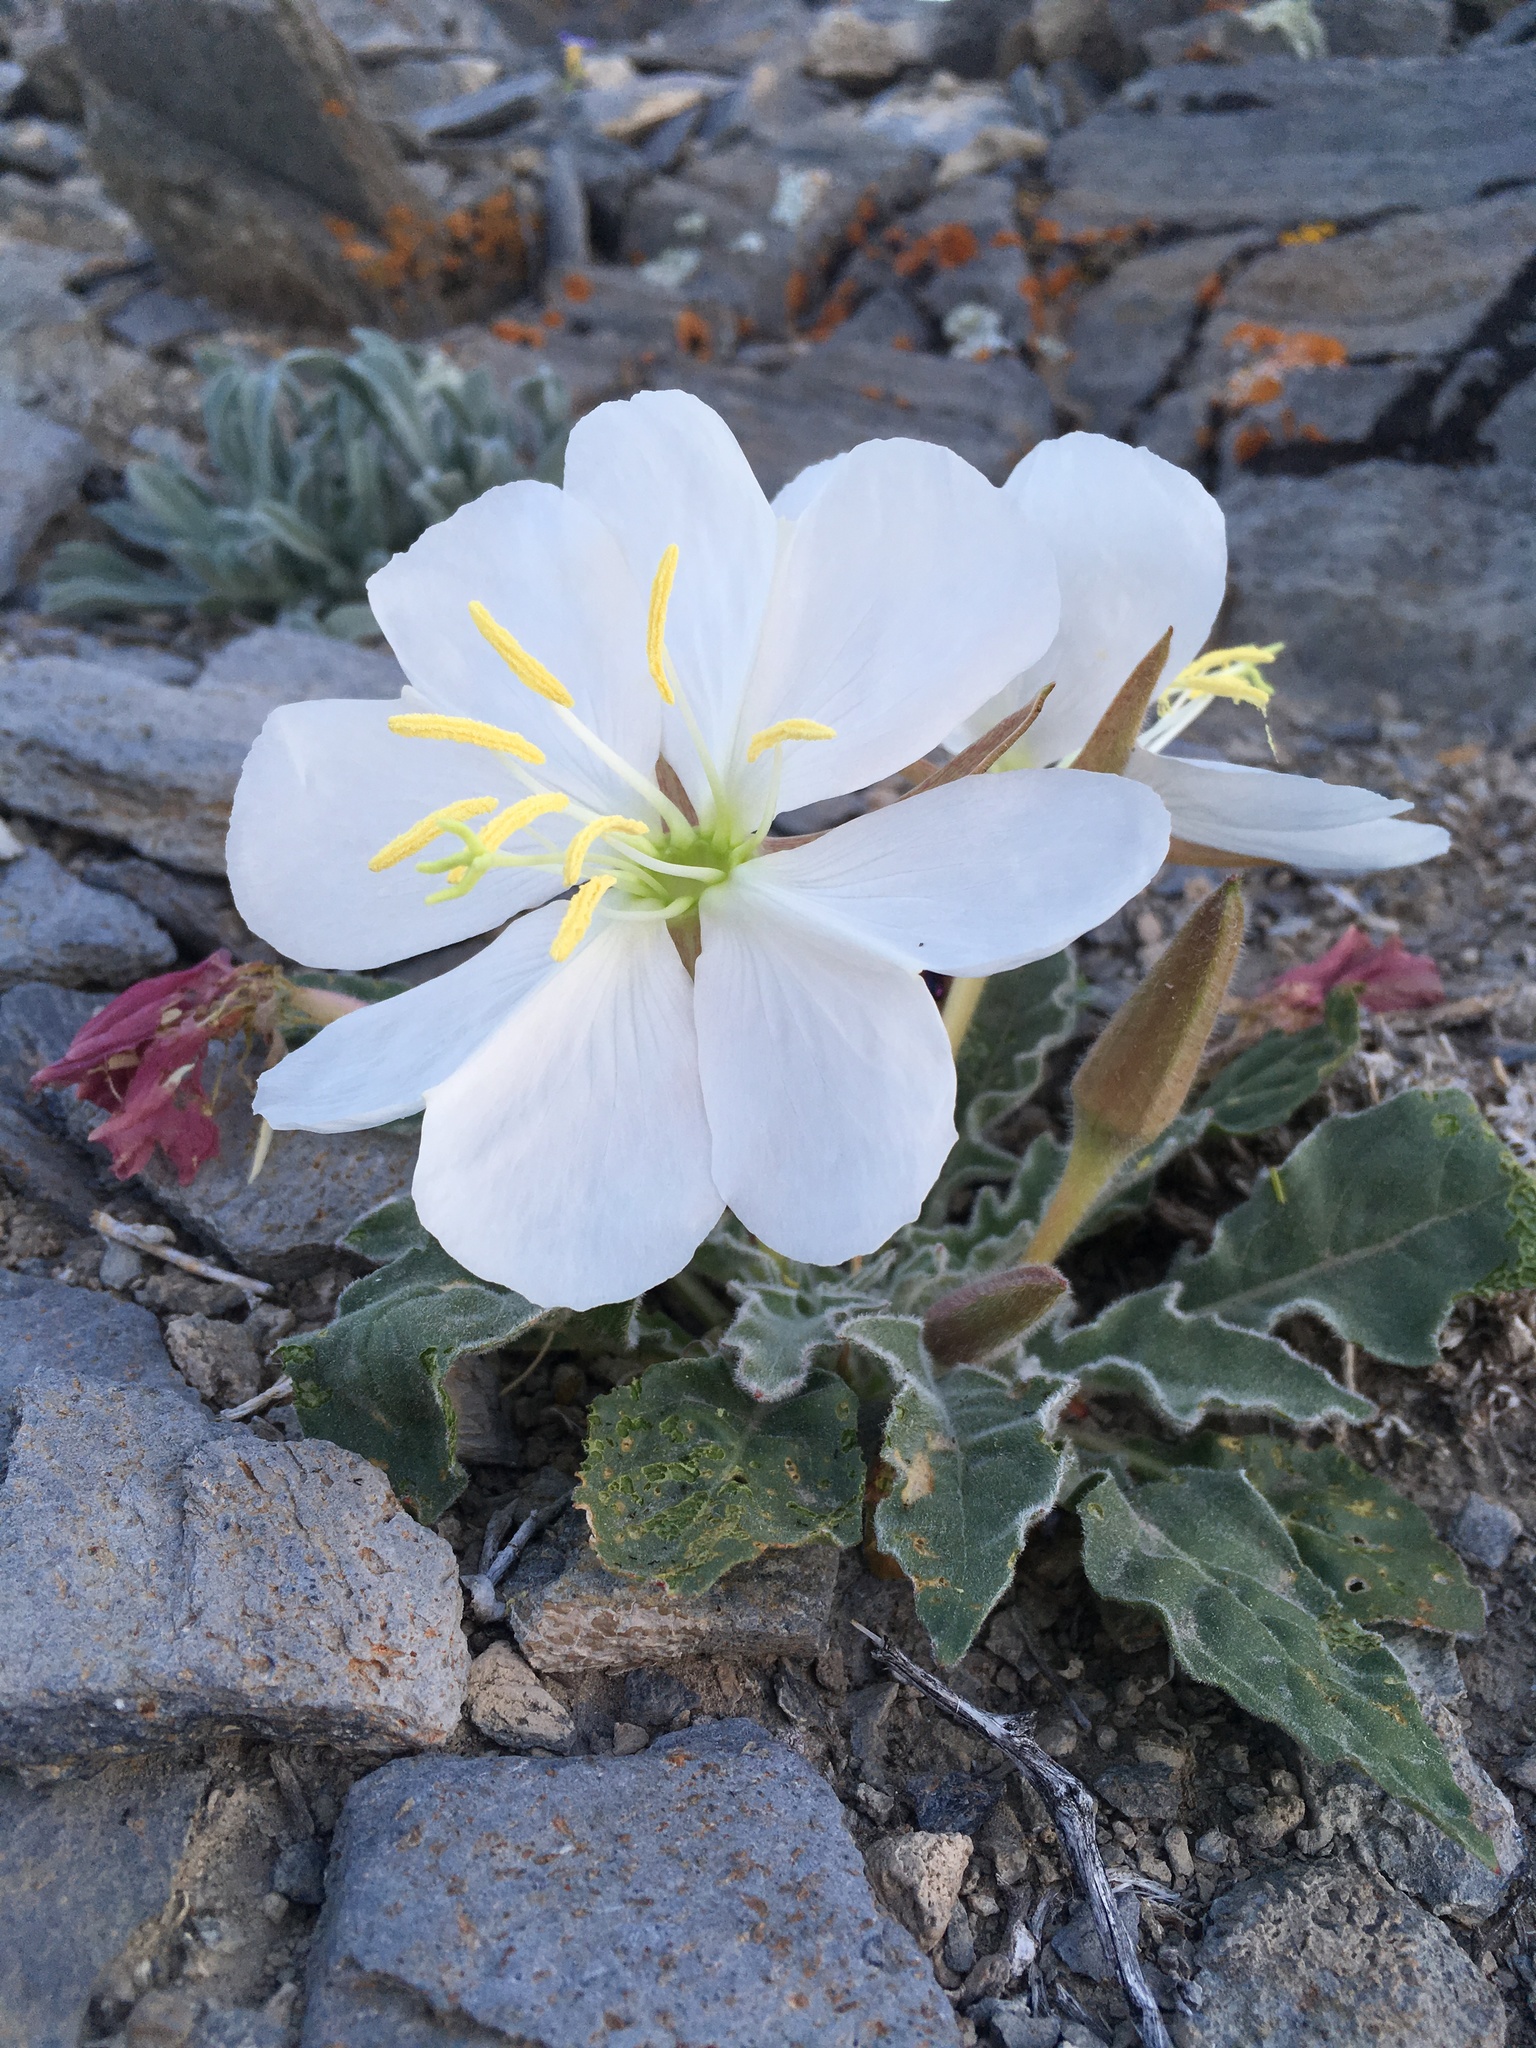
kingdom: Plantae
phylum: Tracheophyta
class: Magnoliopsida
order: Myrtales
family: Onagraceae
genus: Oenothera
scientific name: Oenothera cespitosa
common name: Tufted evening-primrose
